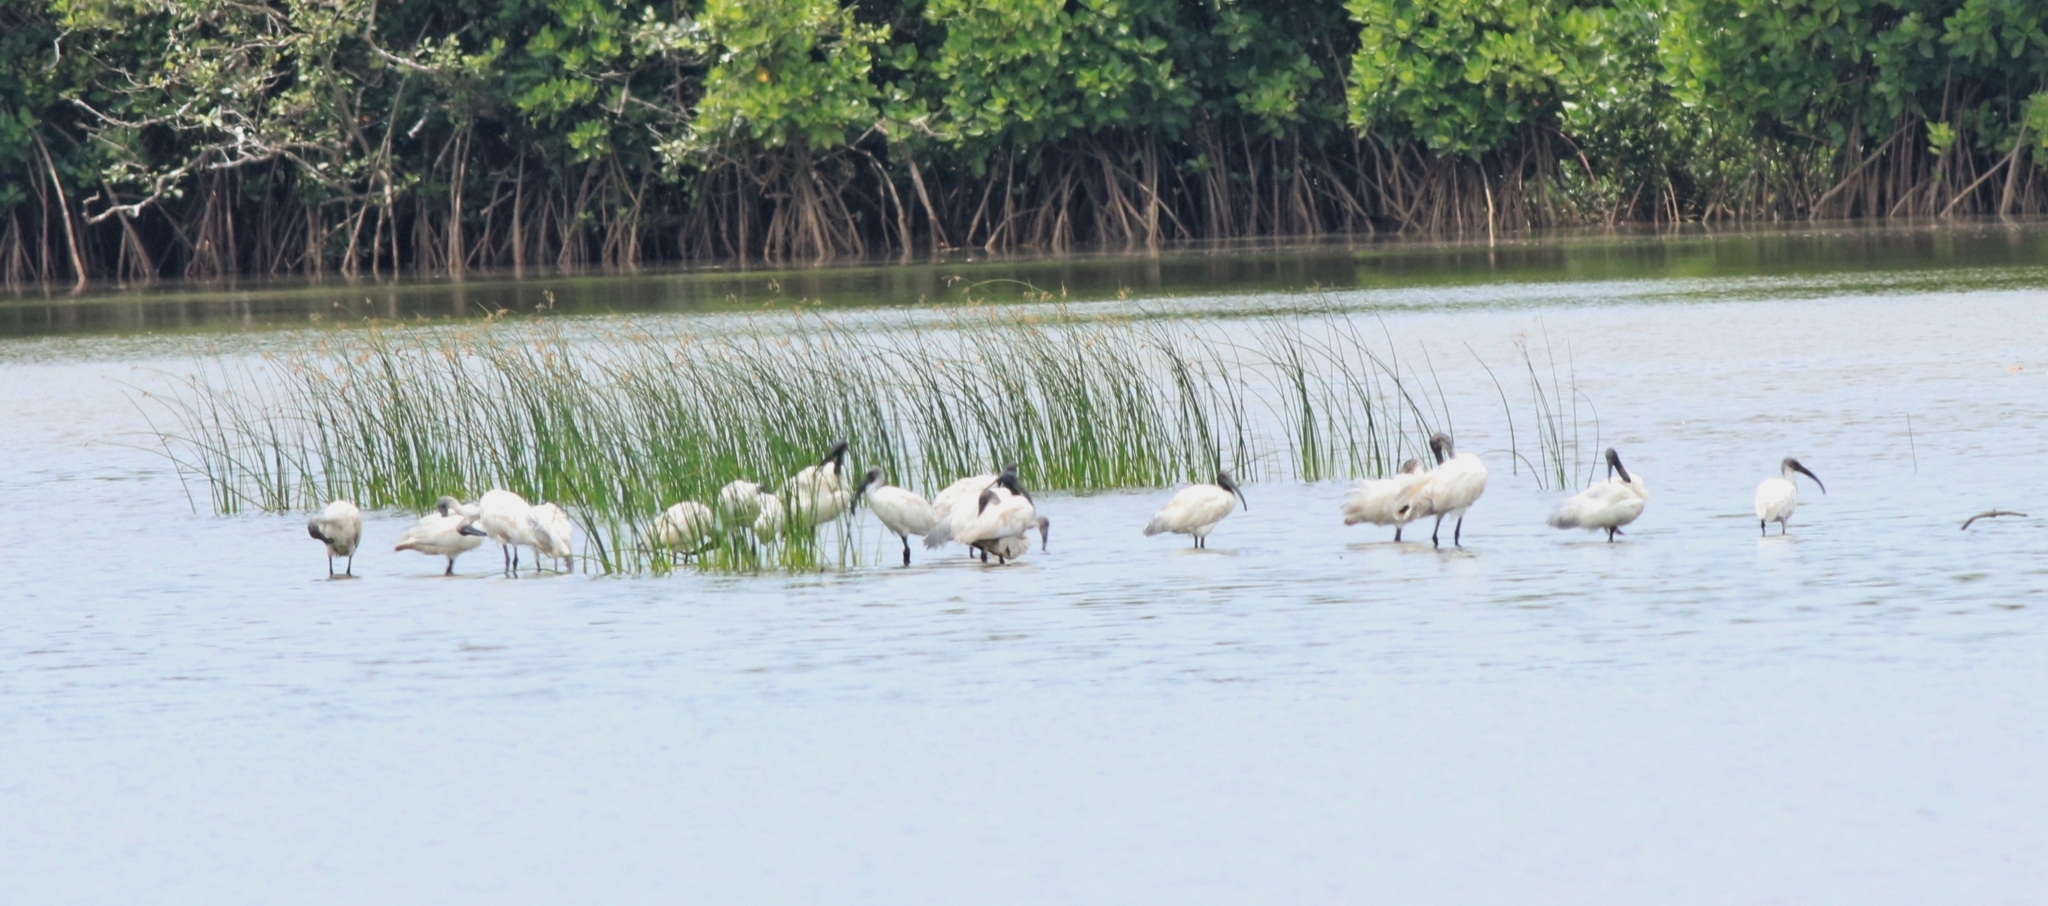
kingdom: Animalia
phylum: Chordata
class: Aves
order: Pelecaniformes
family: Threskiornithidae
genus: Threskiornis
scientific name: Threskiornis melanocephalus
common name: Black-headed ibis
